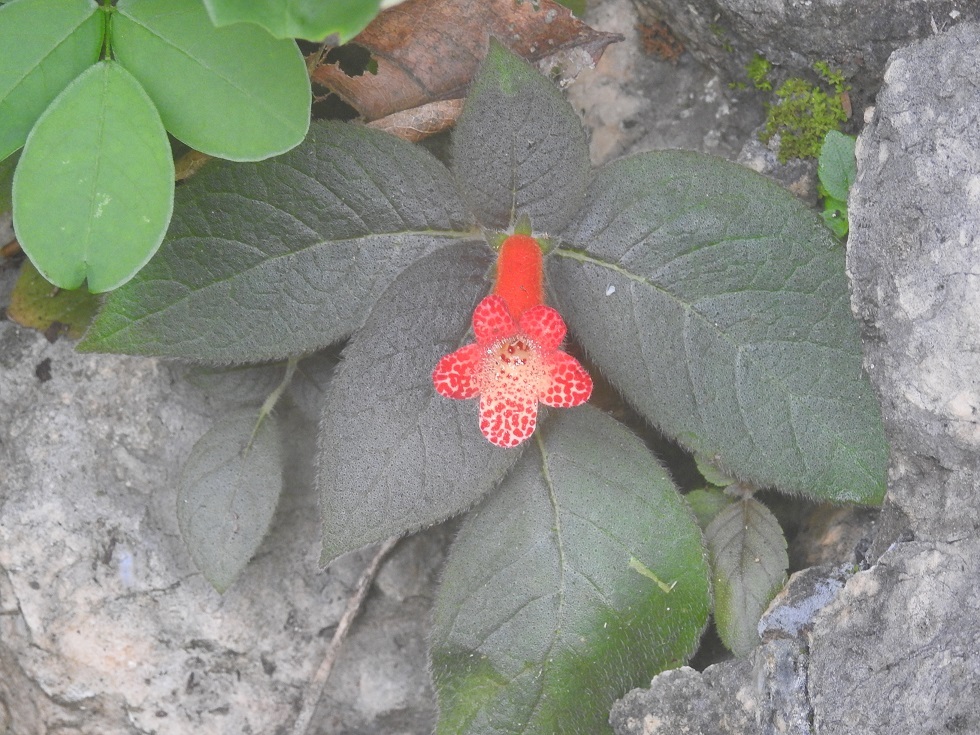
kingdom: Plantae
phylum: Tracheophyta
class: Magnoliopsida
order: Lamiales
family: Gesneriaceae
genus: Kohleria
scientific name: Kohleria rugata
